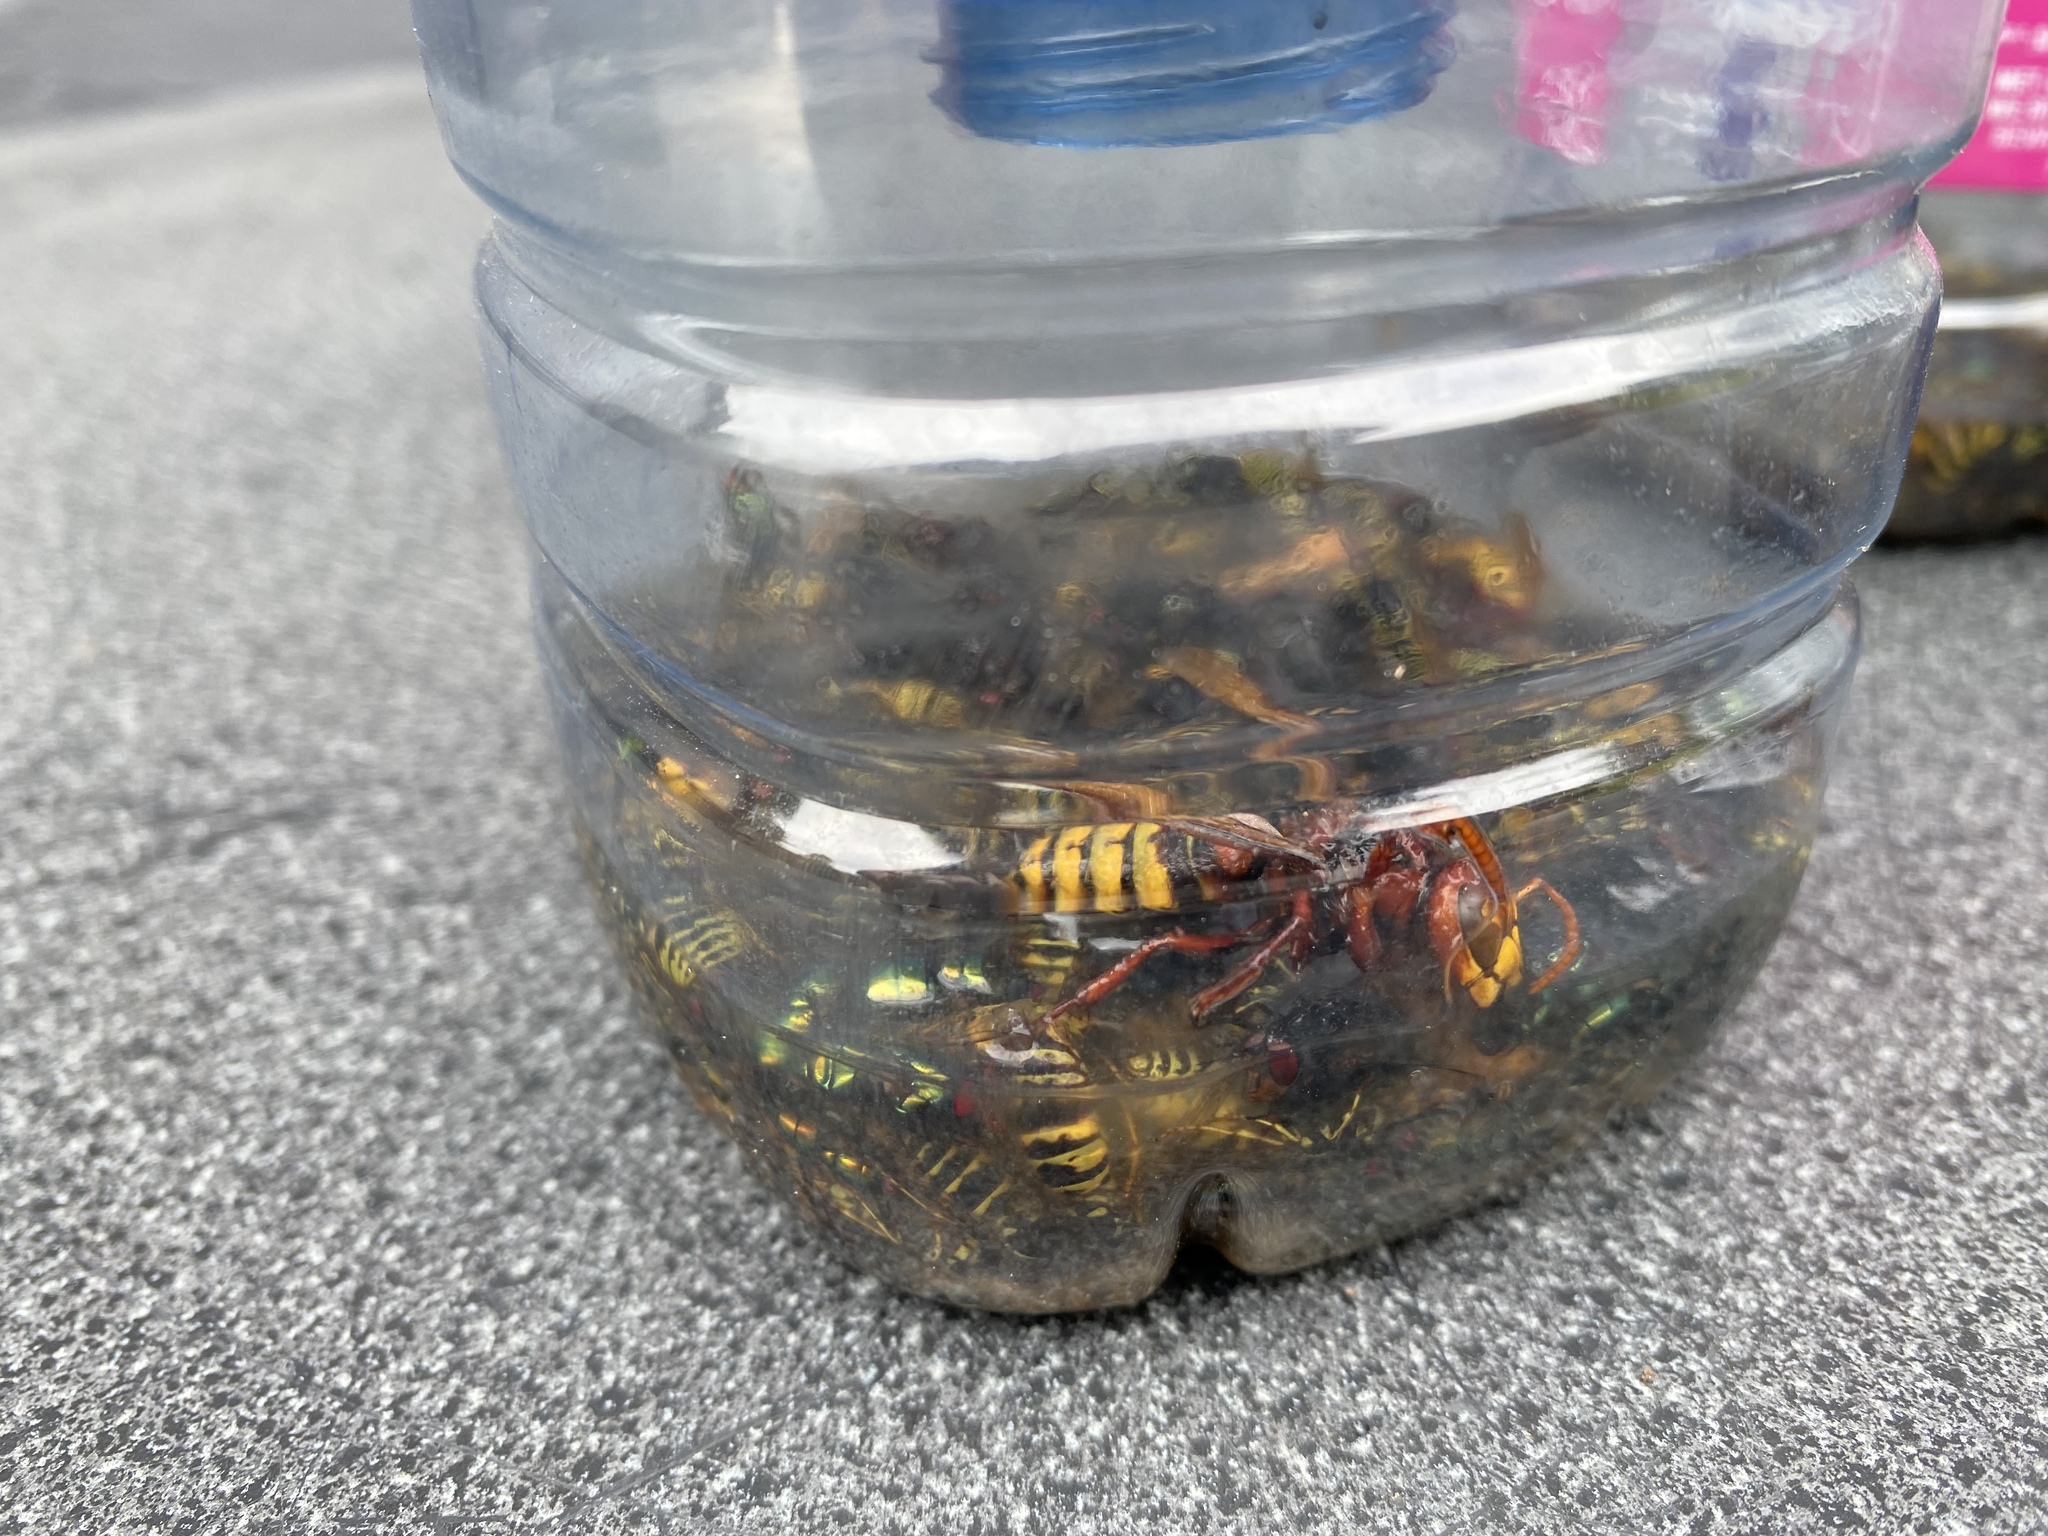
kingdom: Animalia
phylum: Arthropoda
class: Insecta
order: Hymenoptera
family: Vespidae
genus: Vespa
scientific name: Vespa crabro
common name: Hornet
